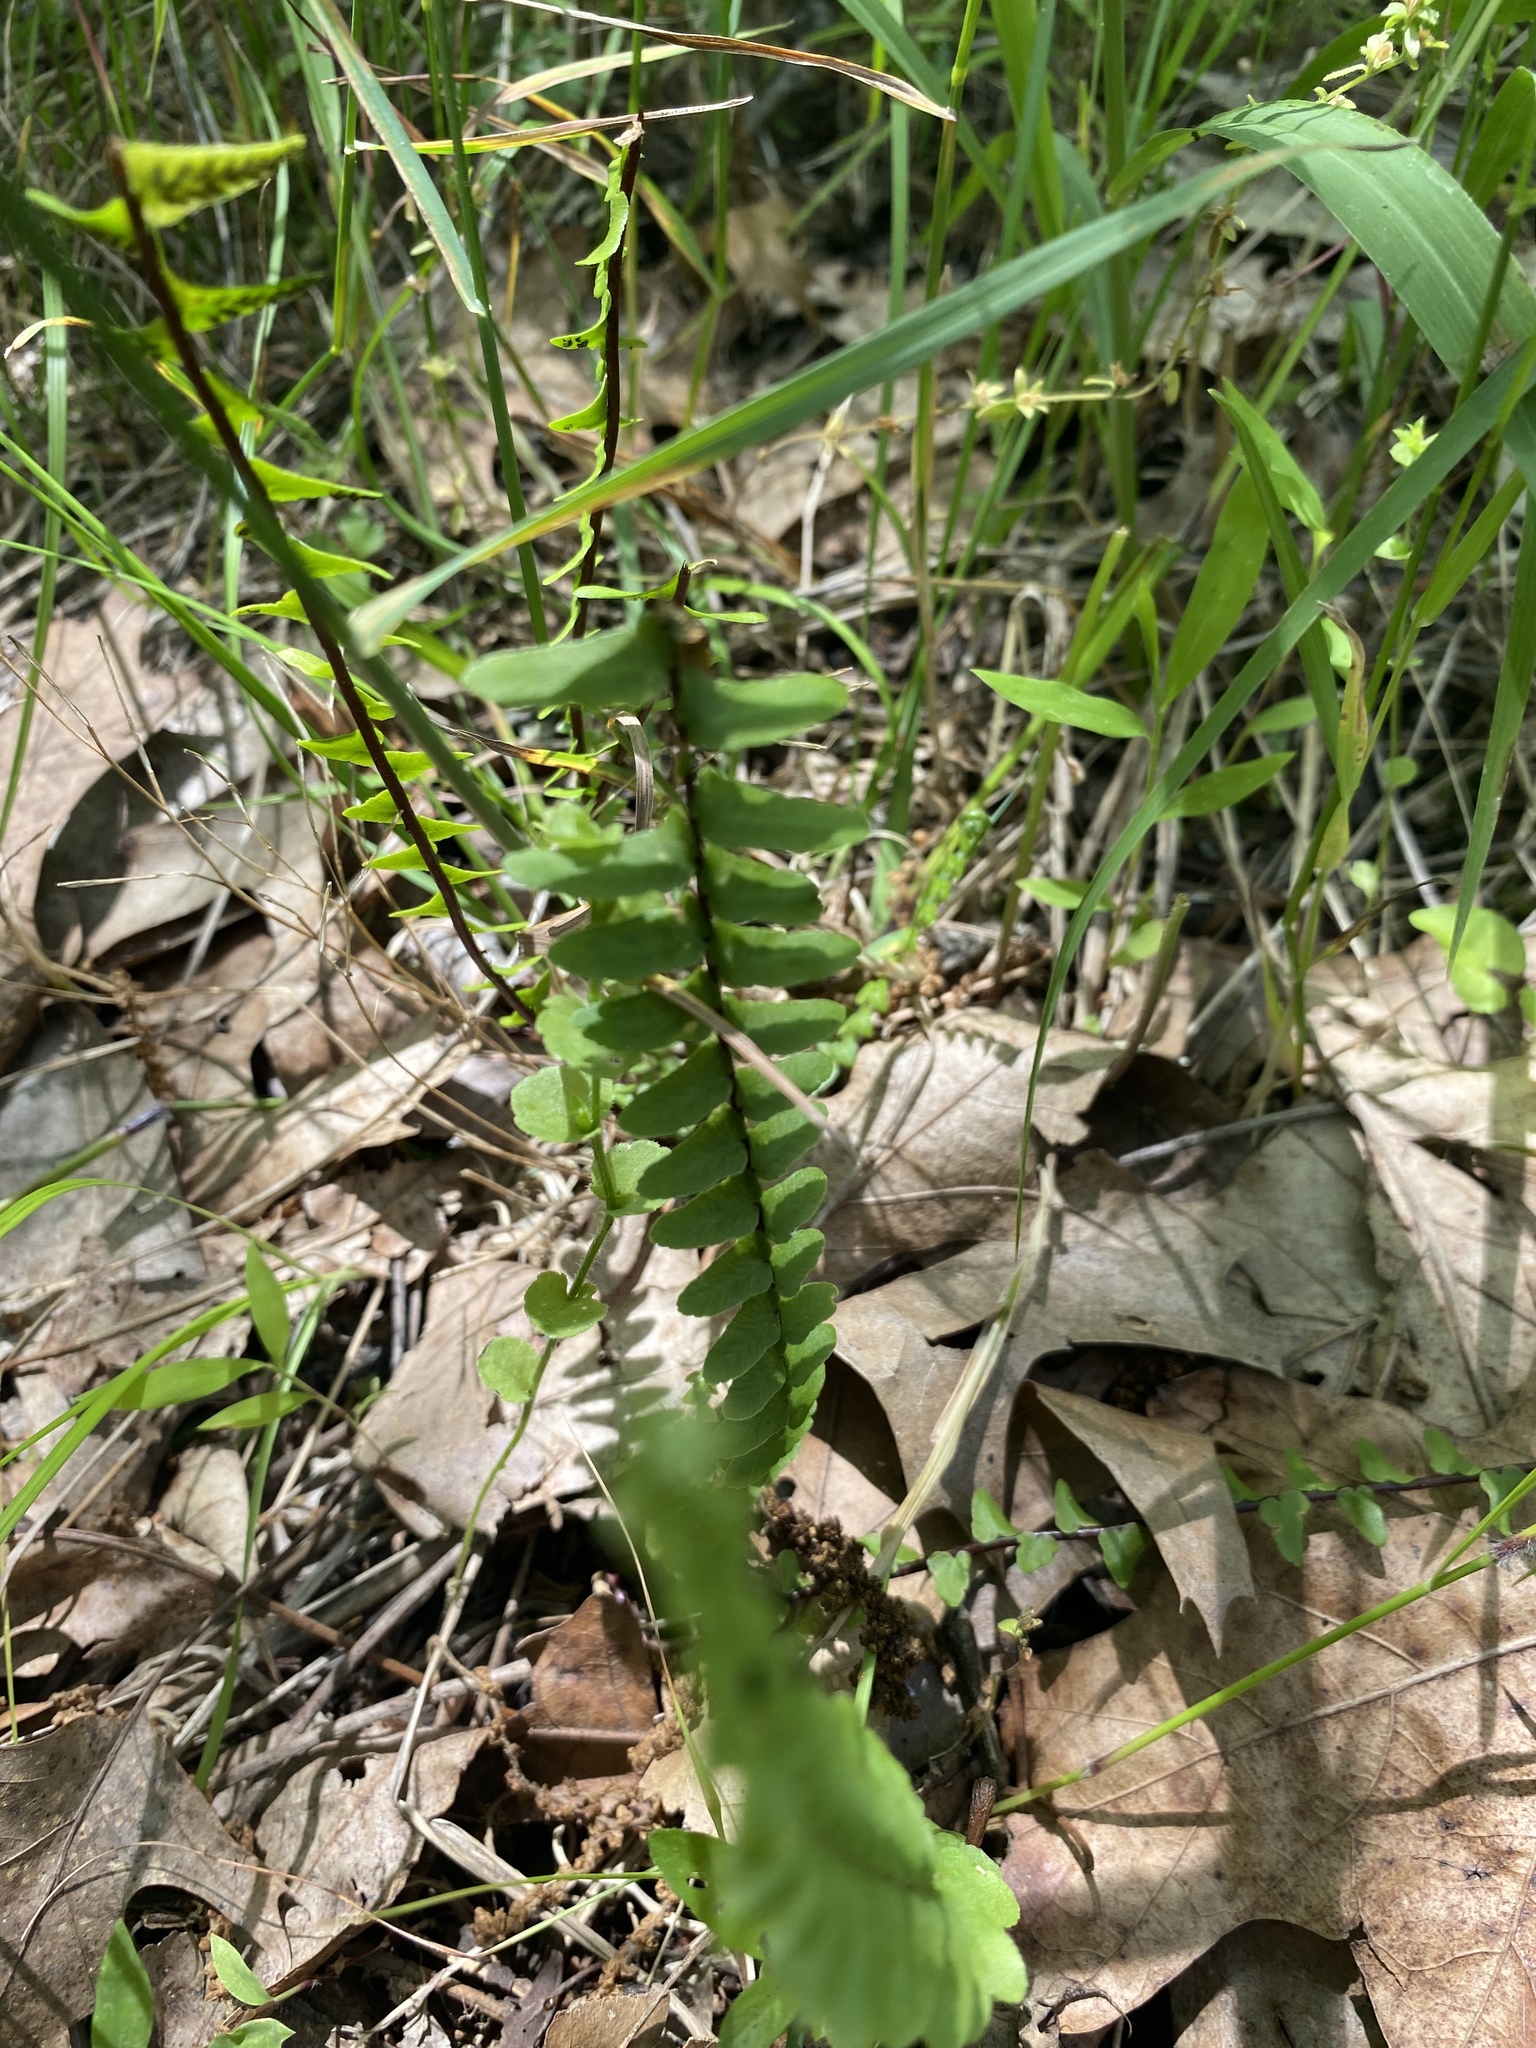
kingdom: Plantae
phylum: Tracheophyta
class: Polypodiopsida
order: Polypodiales
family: Aspleniaceae
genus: Asplenium
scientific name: Asplenium platyneuron
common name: Ebony spleenwort
